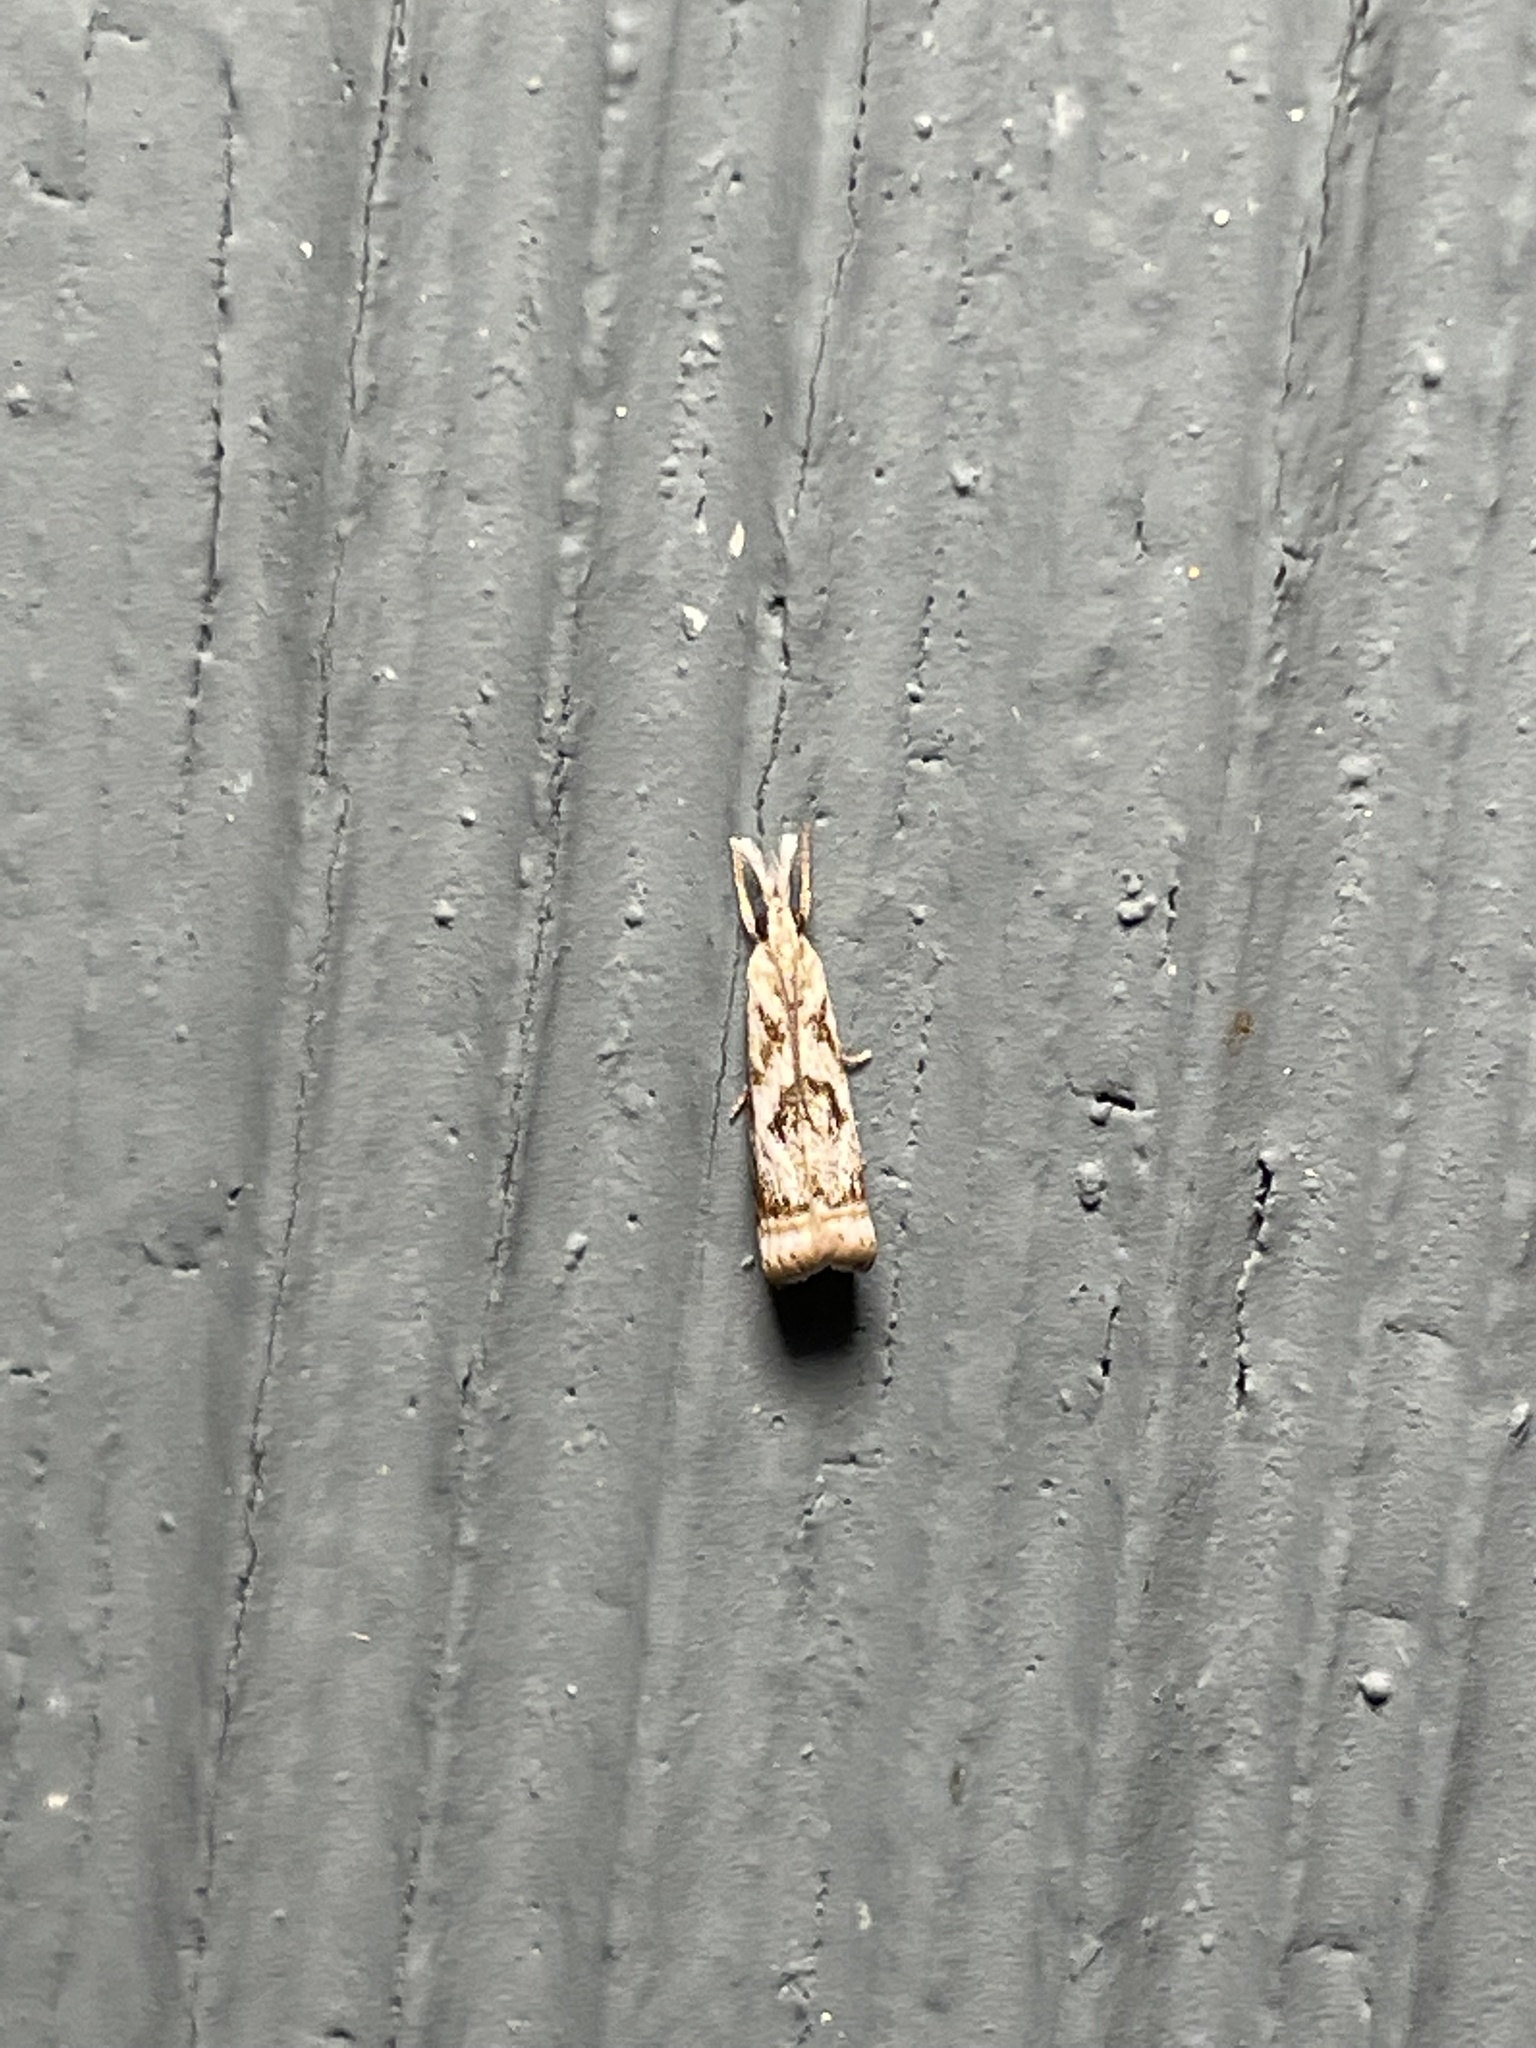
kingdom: Animalia
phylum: Arthropoda
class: Insecta
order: Lepidoptera
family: Crambidae
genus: Microcrambus
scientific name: Microcrambus elegans
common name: Elegant grass-veneer
